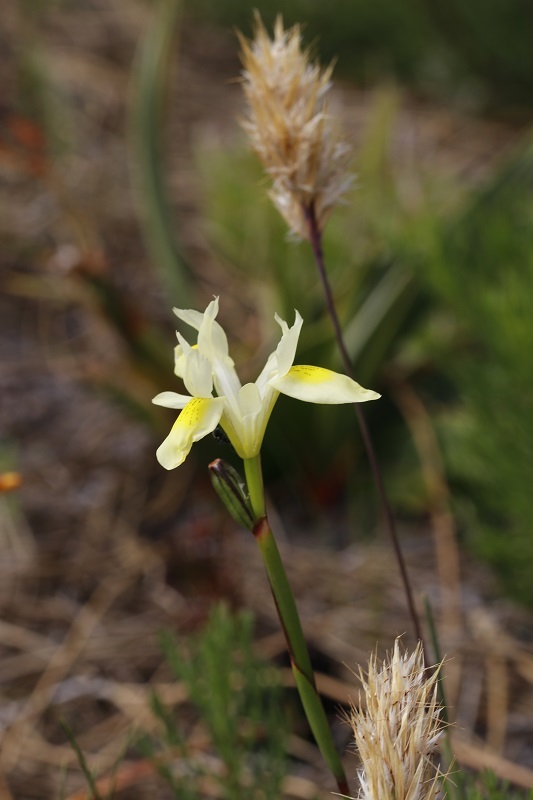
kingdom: Plantae
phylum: Tracheophyta
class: Liliopsida
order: Asparagales
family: Iridaceae
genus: Moraea
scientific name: Moraea neglecta
